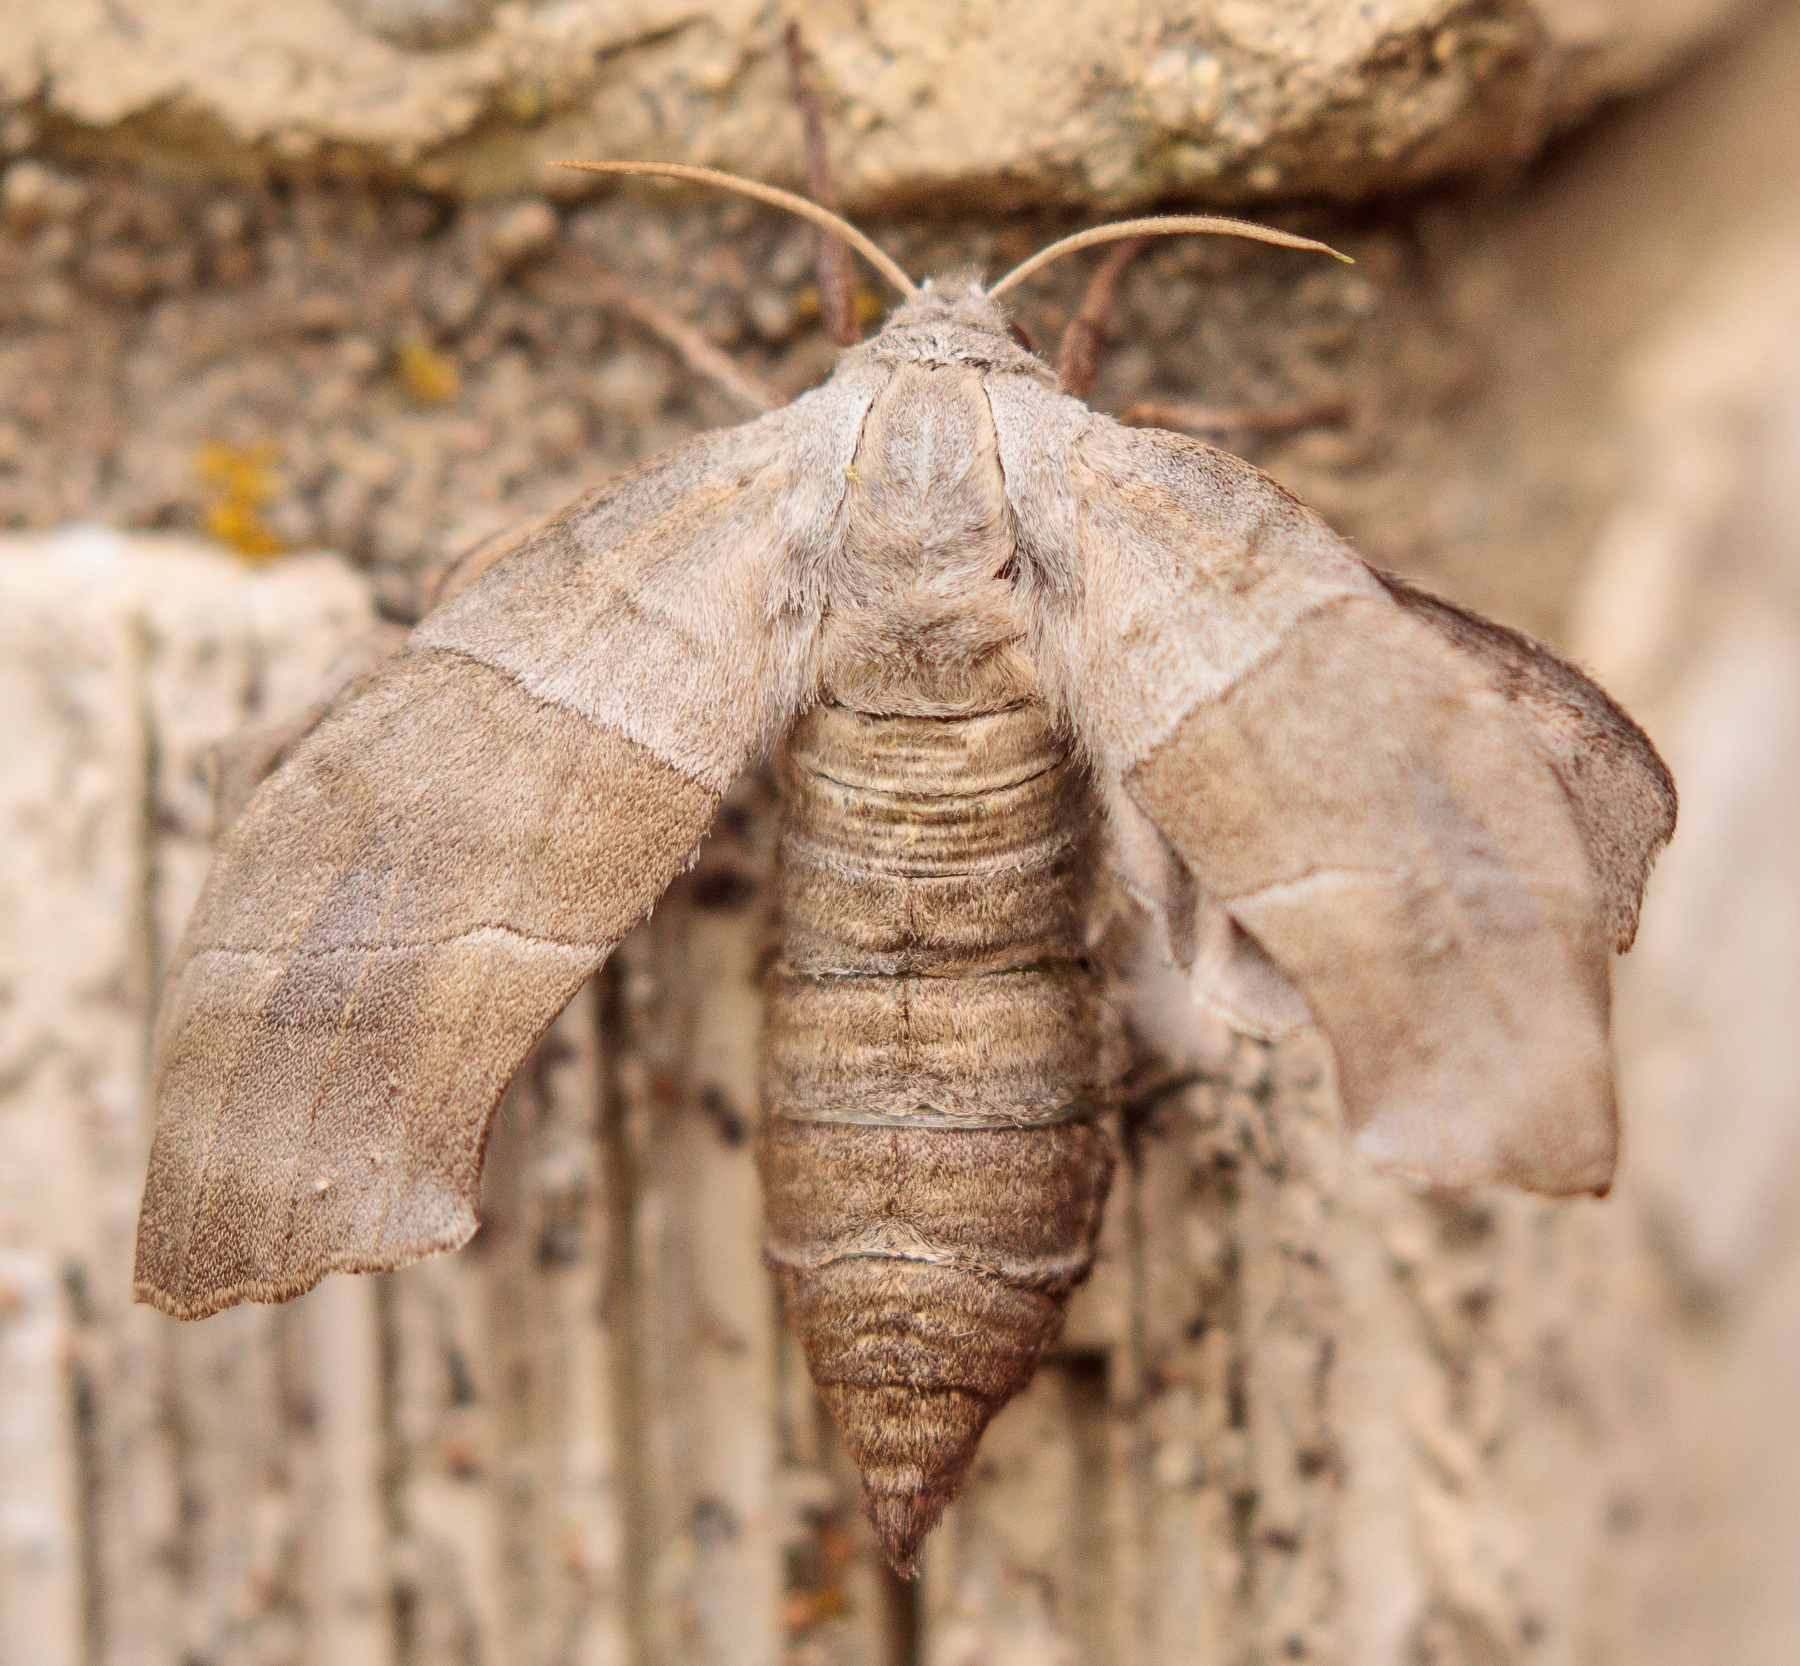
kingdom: Animalia
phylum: Arthropoda
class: Insecta
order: Lepidoptera
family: Sphingidae
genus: Amorpha
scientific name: Amorpha juglandis
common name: Walnut sphinx
